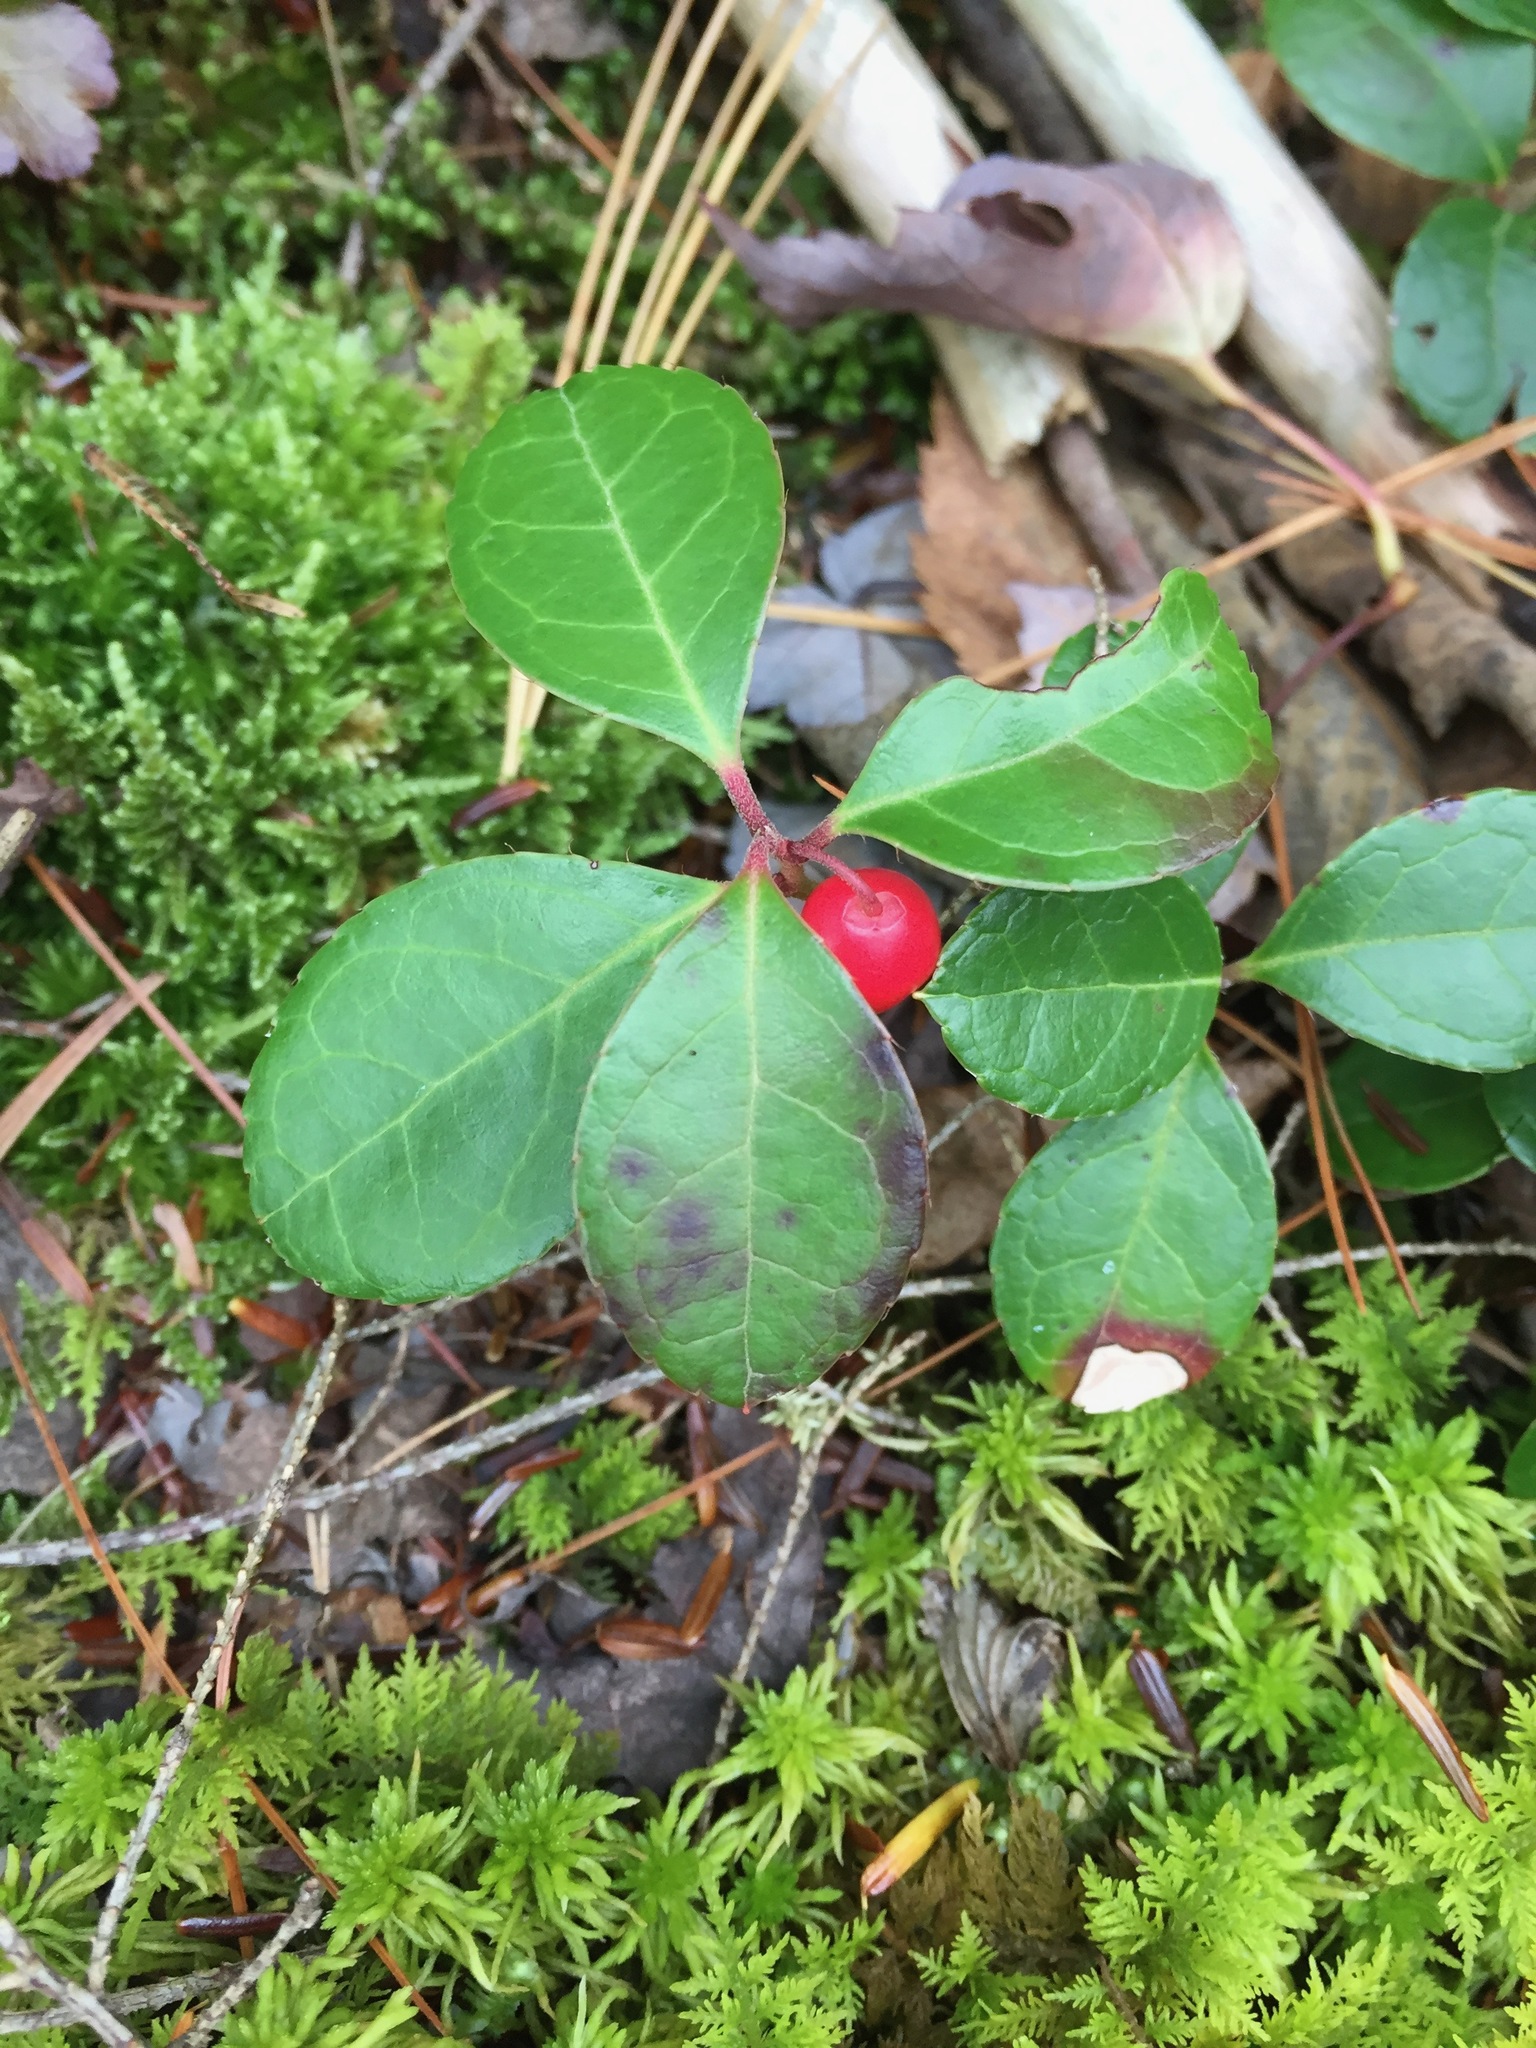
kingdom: Plantae
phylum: Tracheophyta
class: Magnoliopsida
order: Ericales
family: Ericaceae
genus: Gaultheria
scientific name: Gaultheria procumbens
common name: Checkerberry
